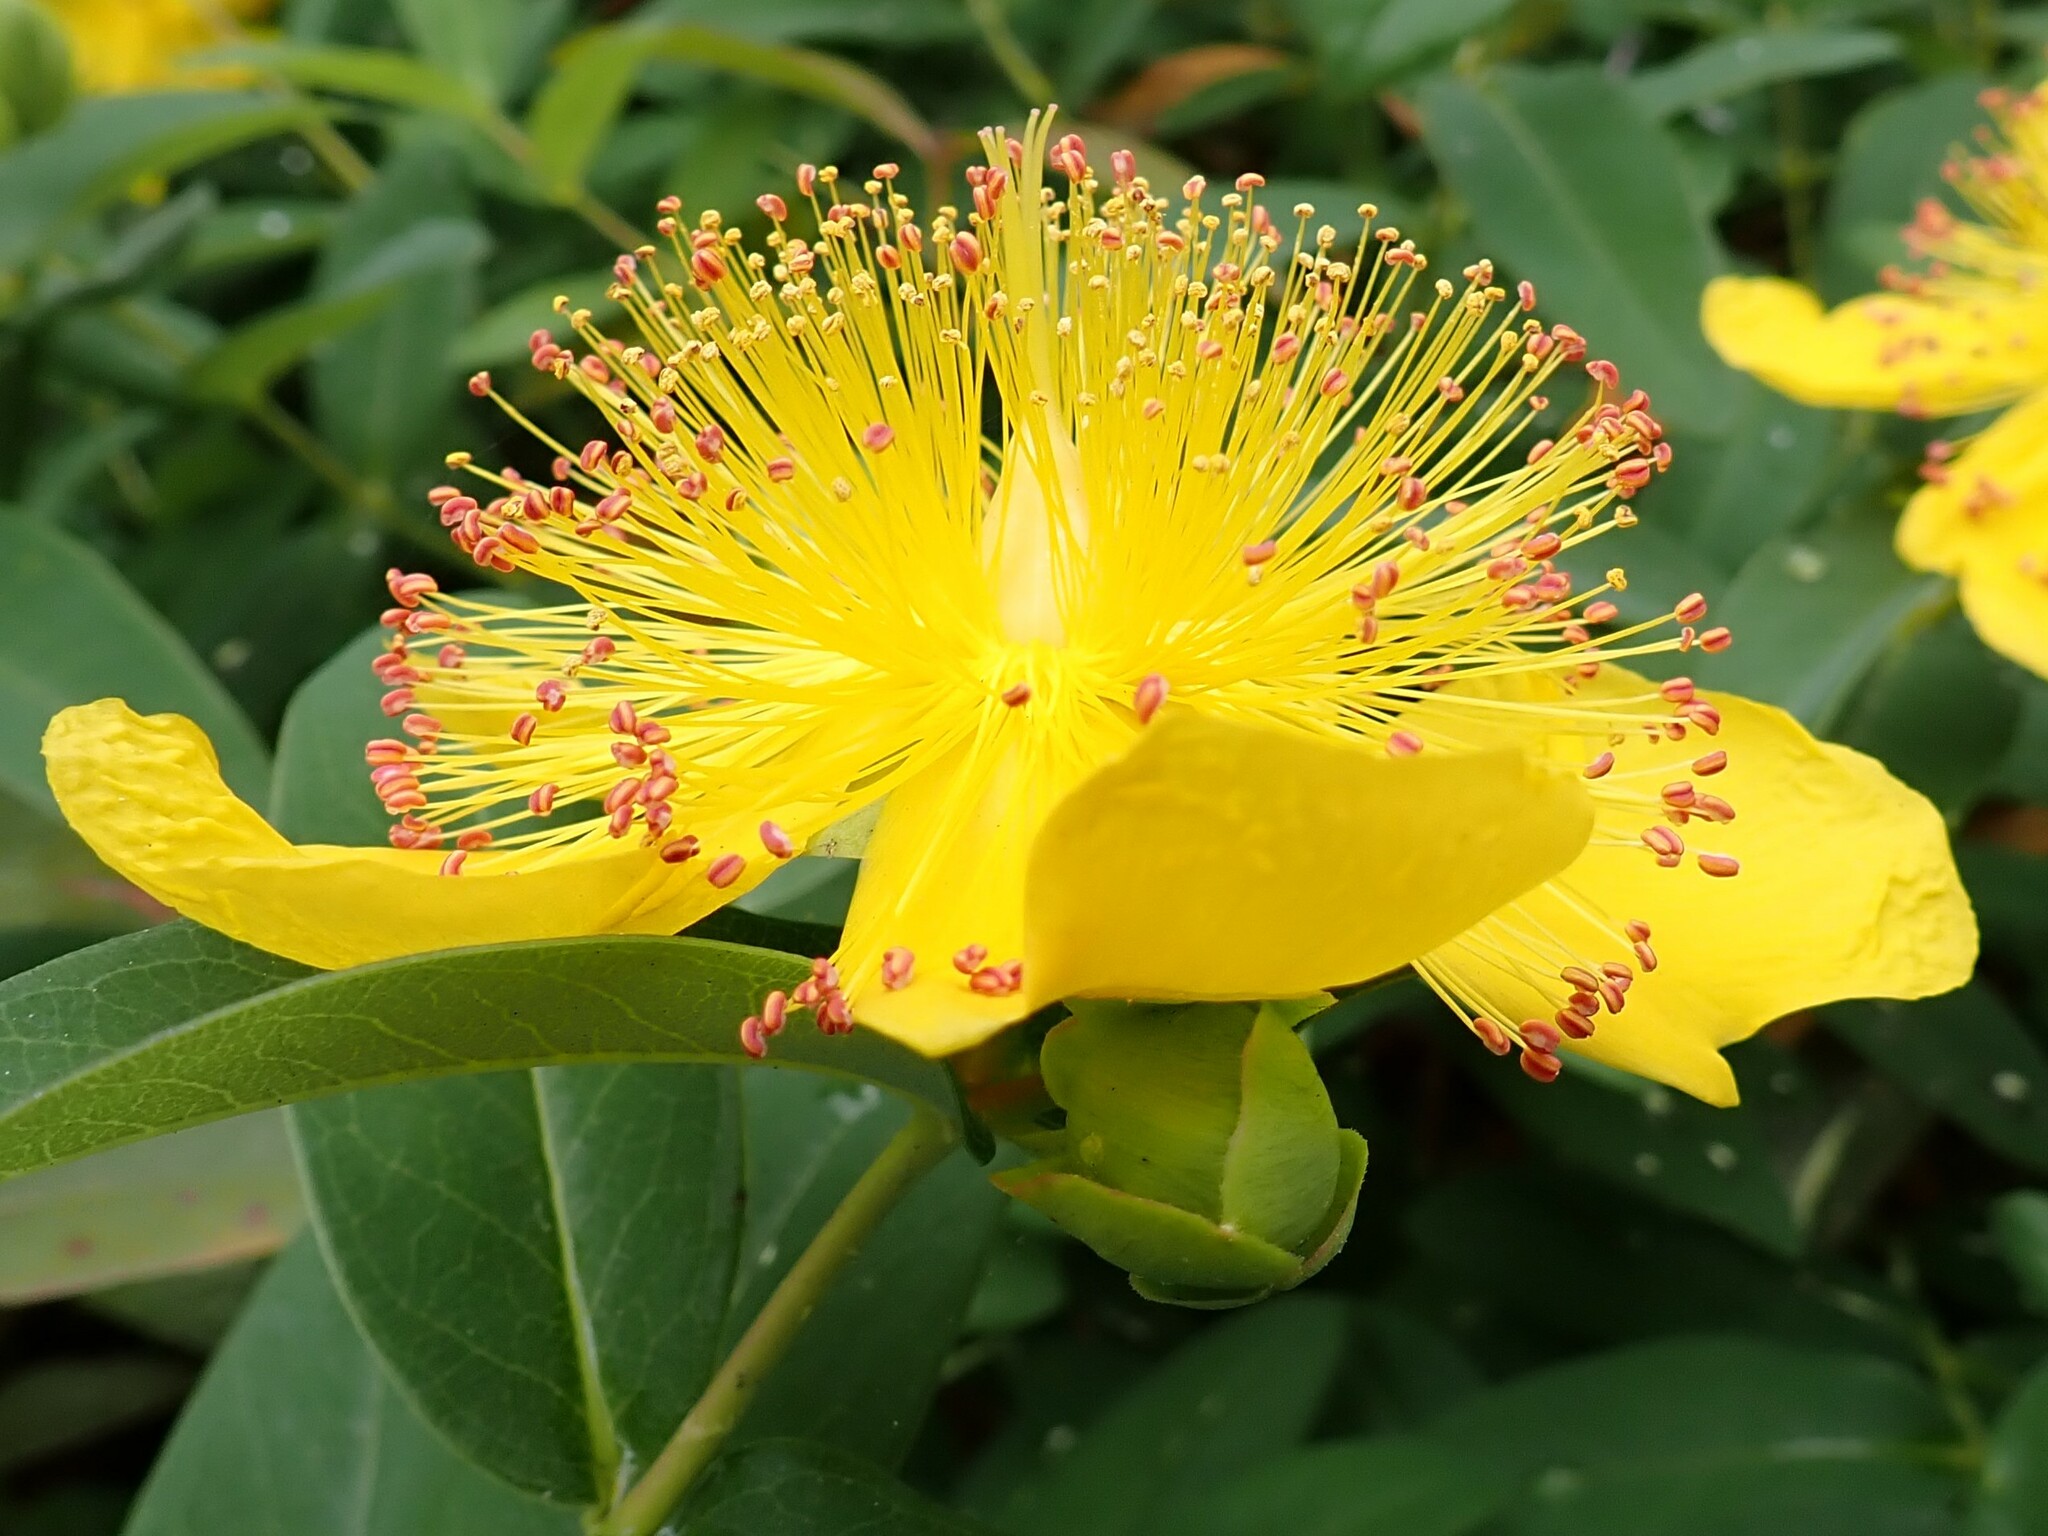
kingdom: Plantae
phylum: Tracheophyta
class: Magnoliopsida
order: Malpighiales
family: Hypericaceae
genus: Hypericum
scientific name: Hypericum calycinum
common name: Rose-of-sharon
